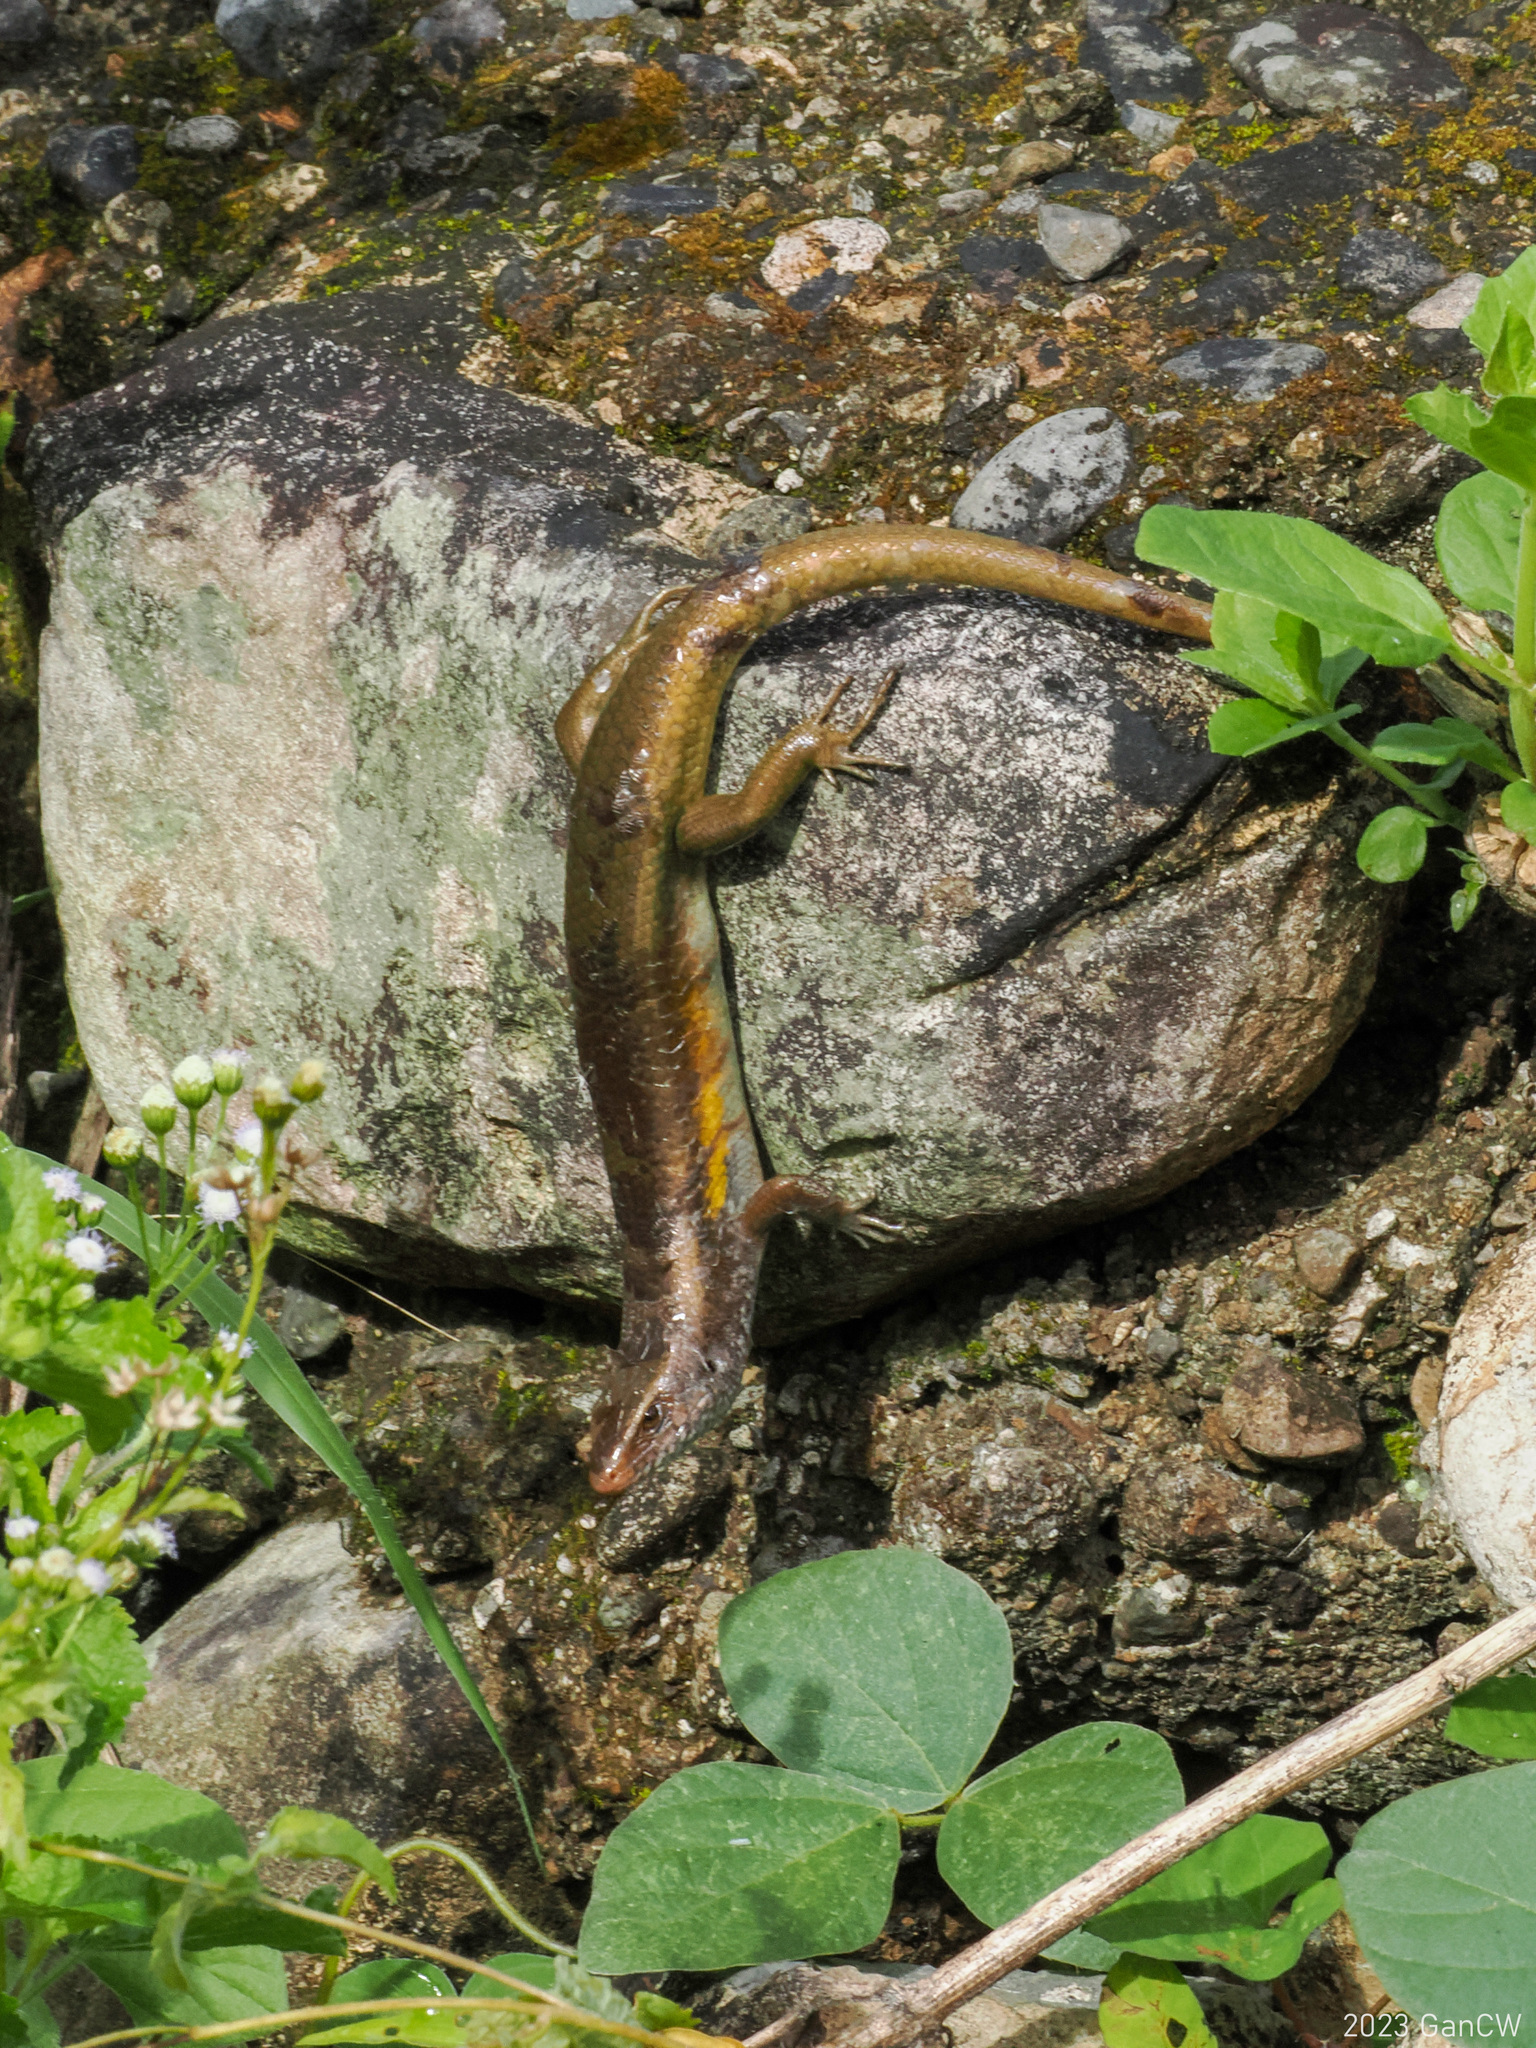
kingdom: Animalia
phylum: Chordata
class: Squamata
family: Scincidae
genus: Eutropis
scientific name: Eutropis multifasciata
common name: Common mabuya
